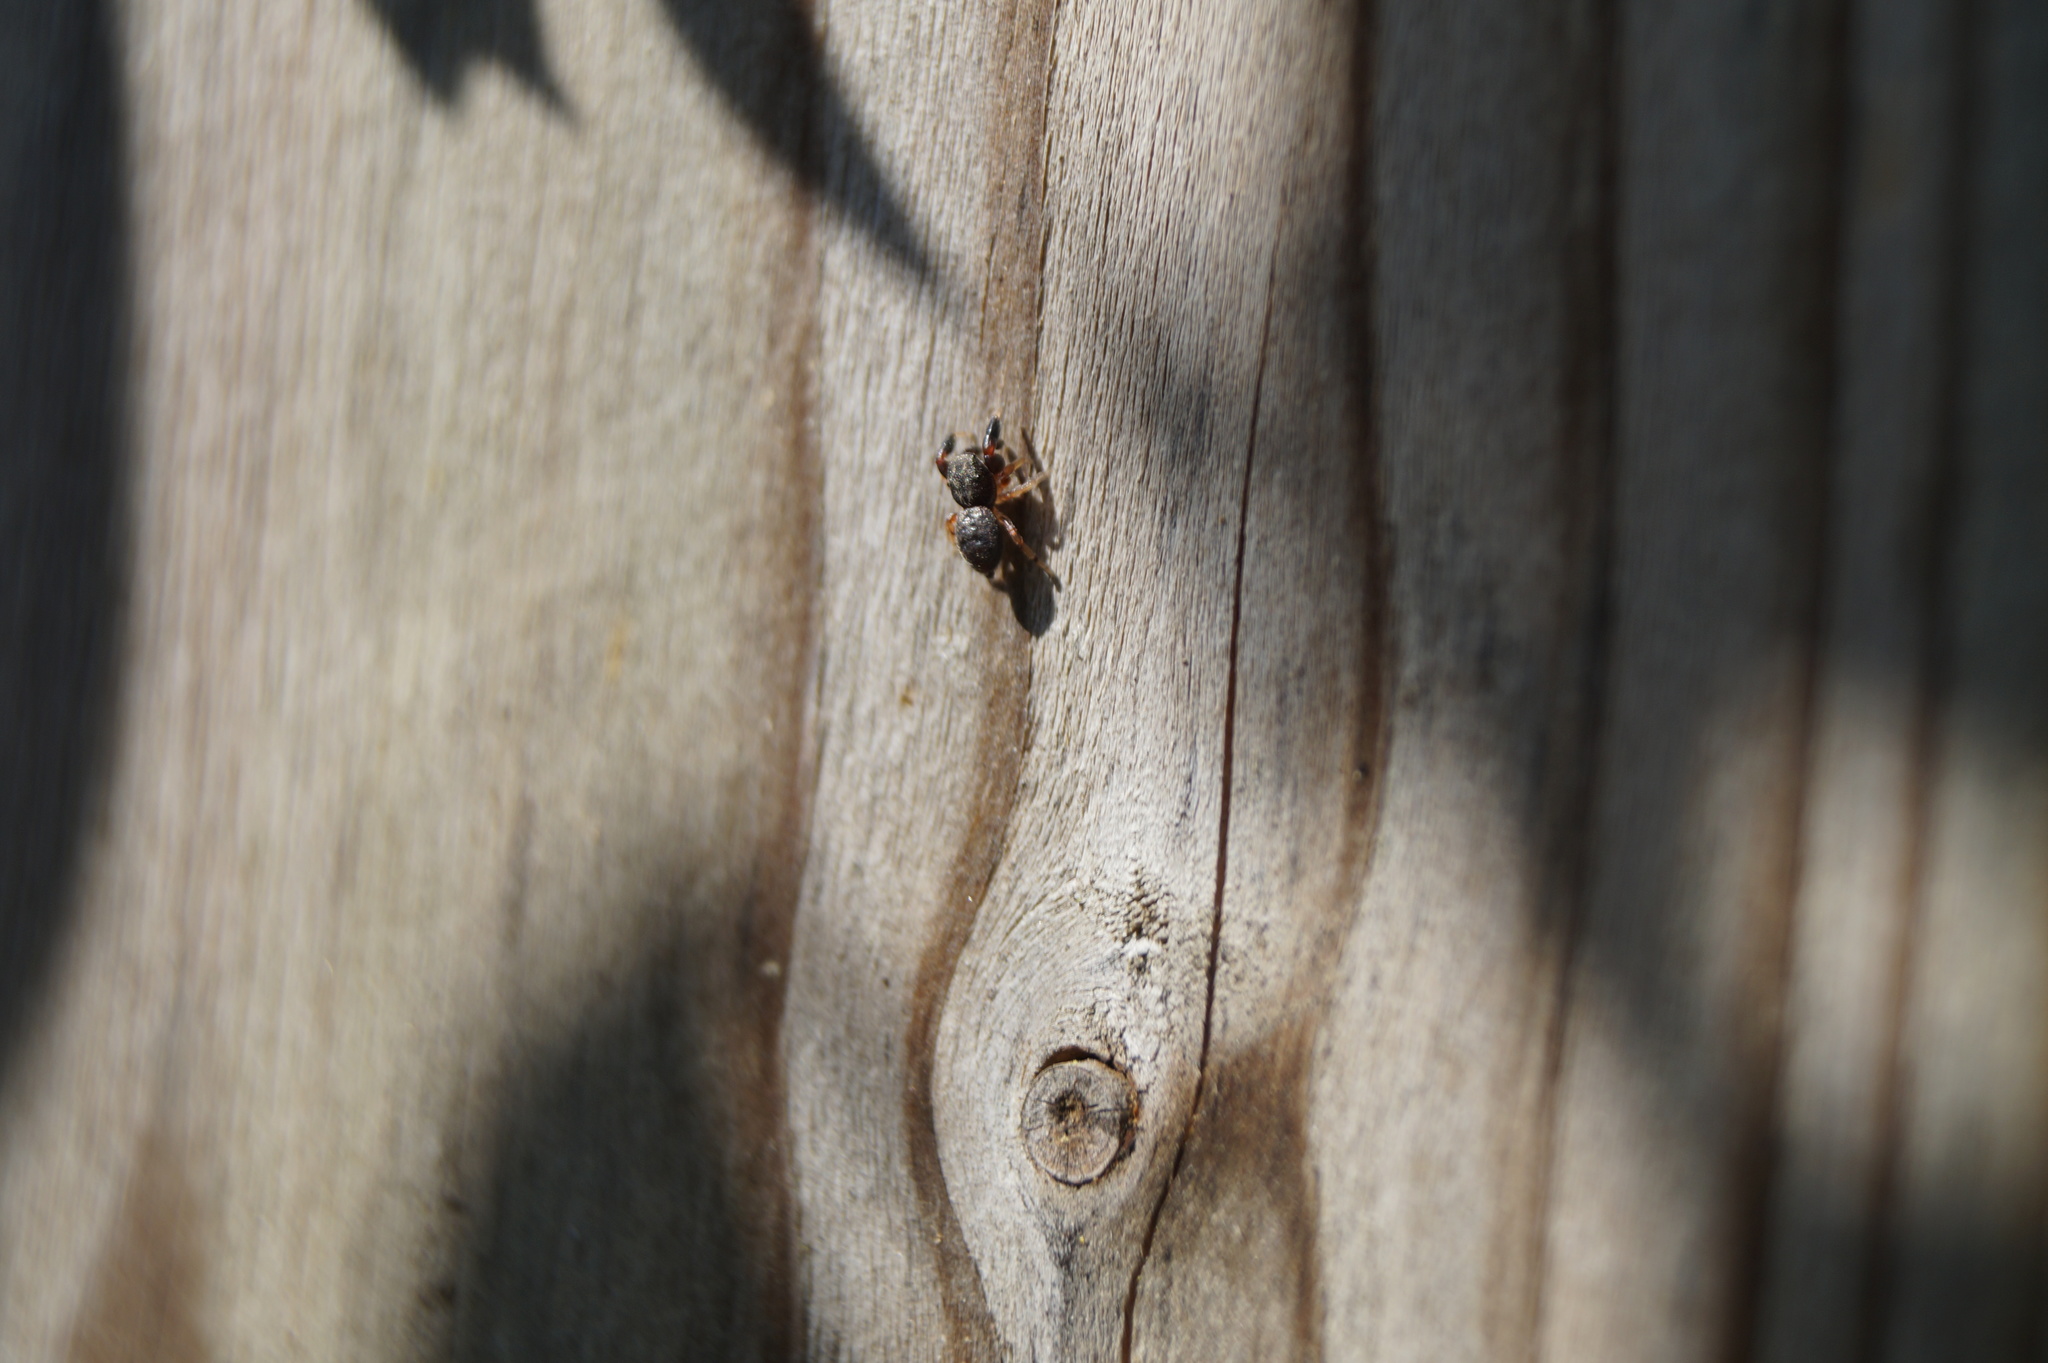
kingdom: Animalia
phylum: Arthropoda
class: Arachnida
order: Araneae
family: Salticidae
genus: Ballus
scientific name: Ballus chalybeius
